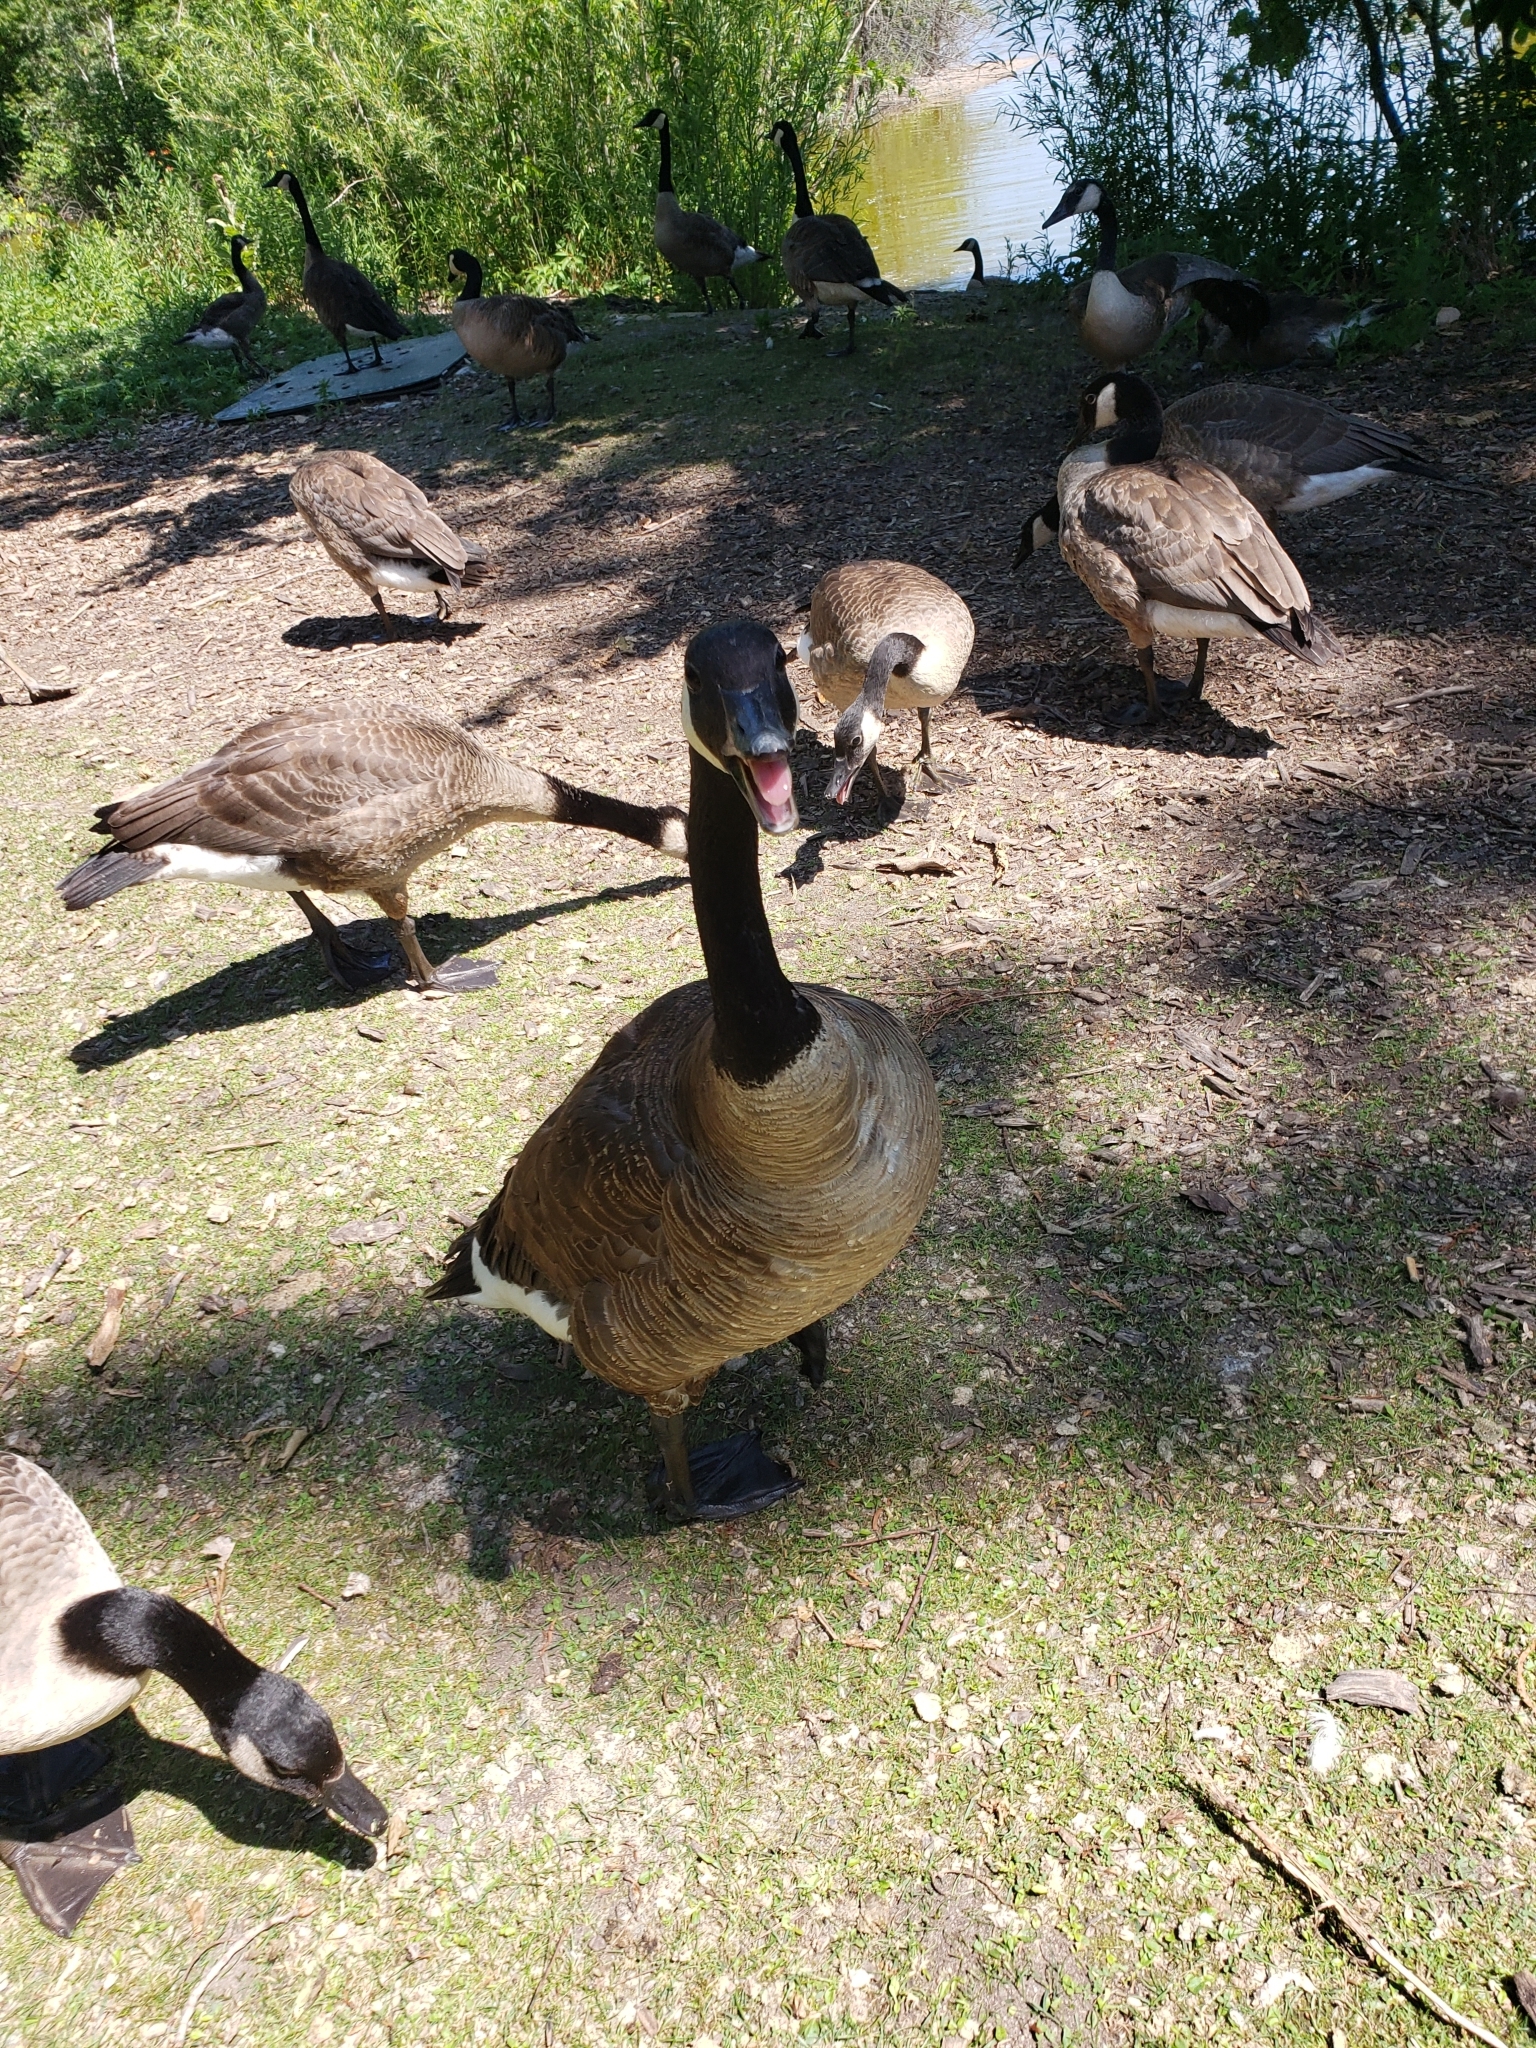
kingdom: Animalia
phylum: Chordata
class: Aves
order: Anseriformes
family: Anatidae
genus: Branta
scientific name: Branta canadensis
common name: Canada goose
